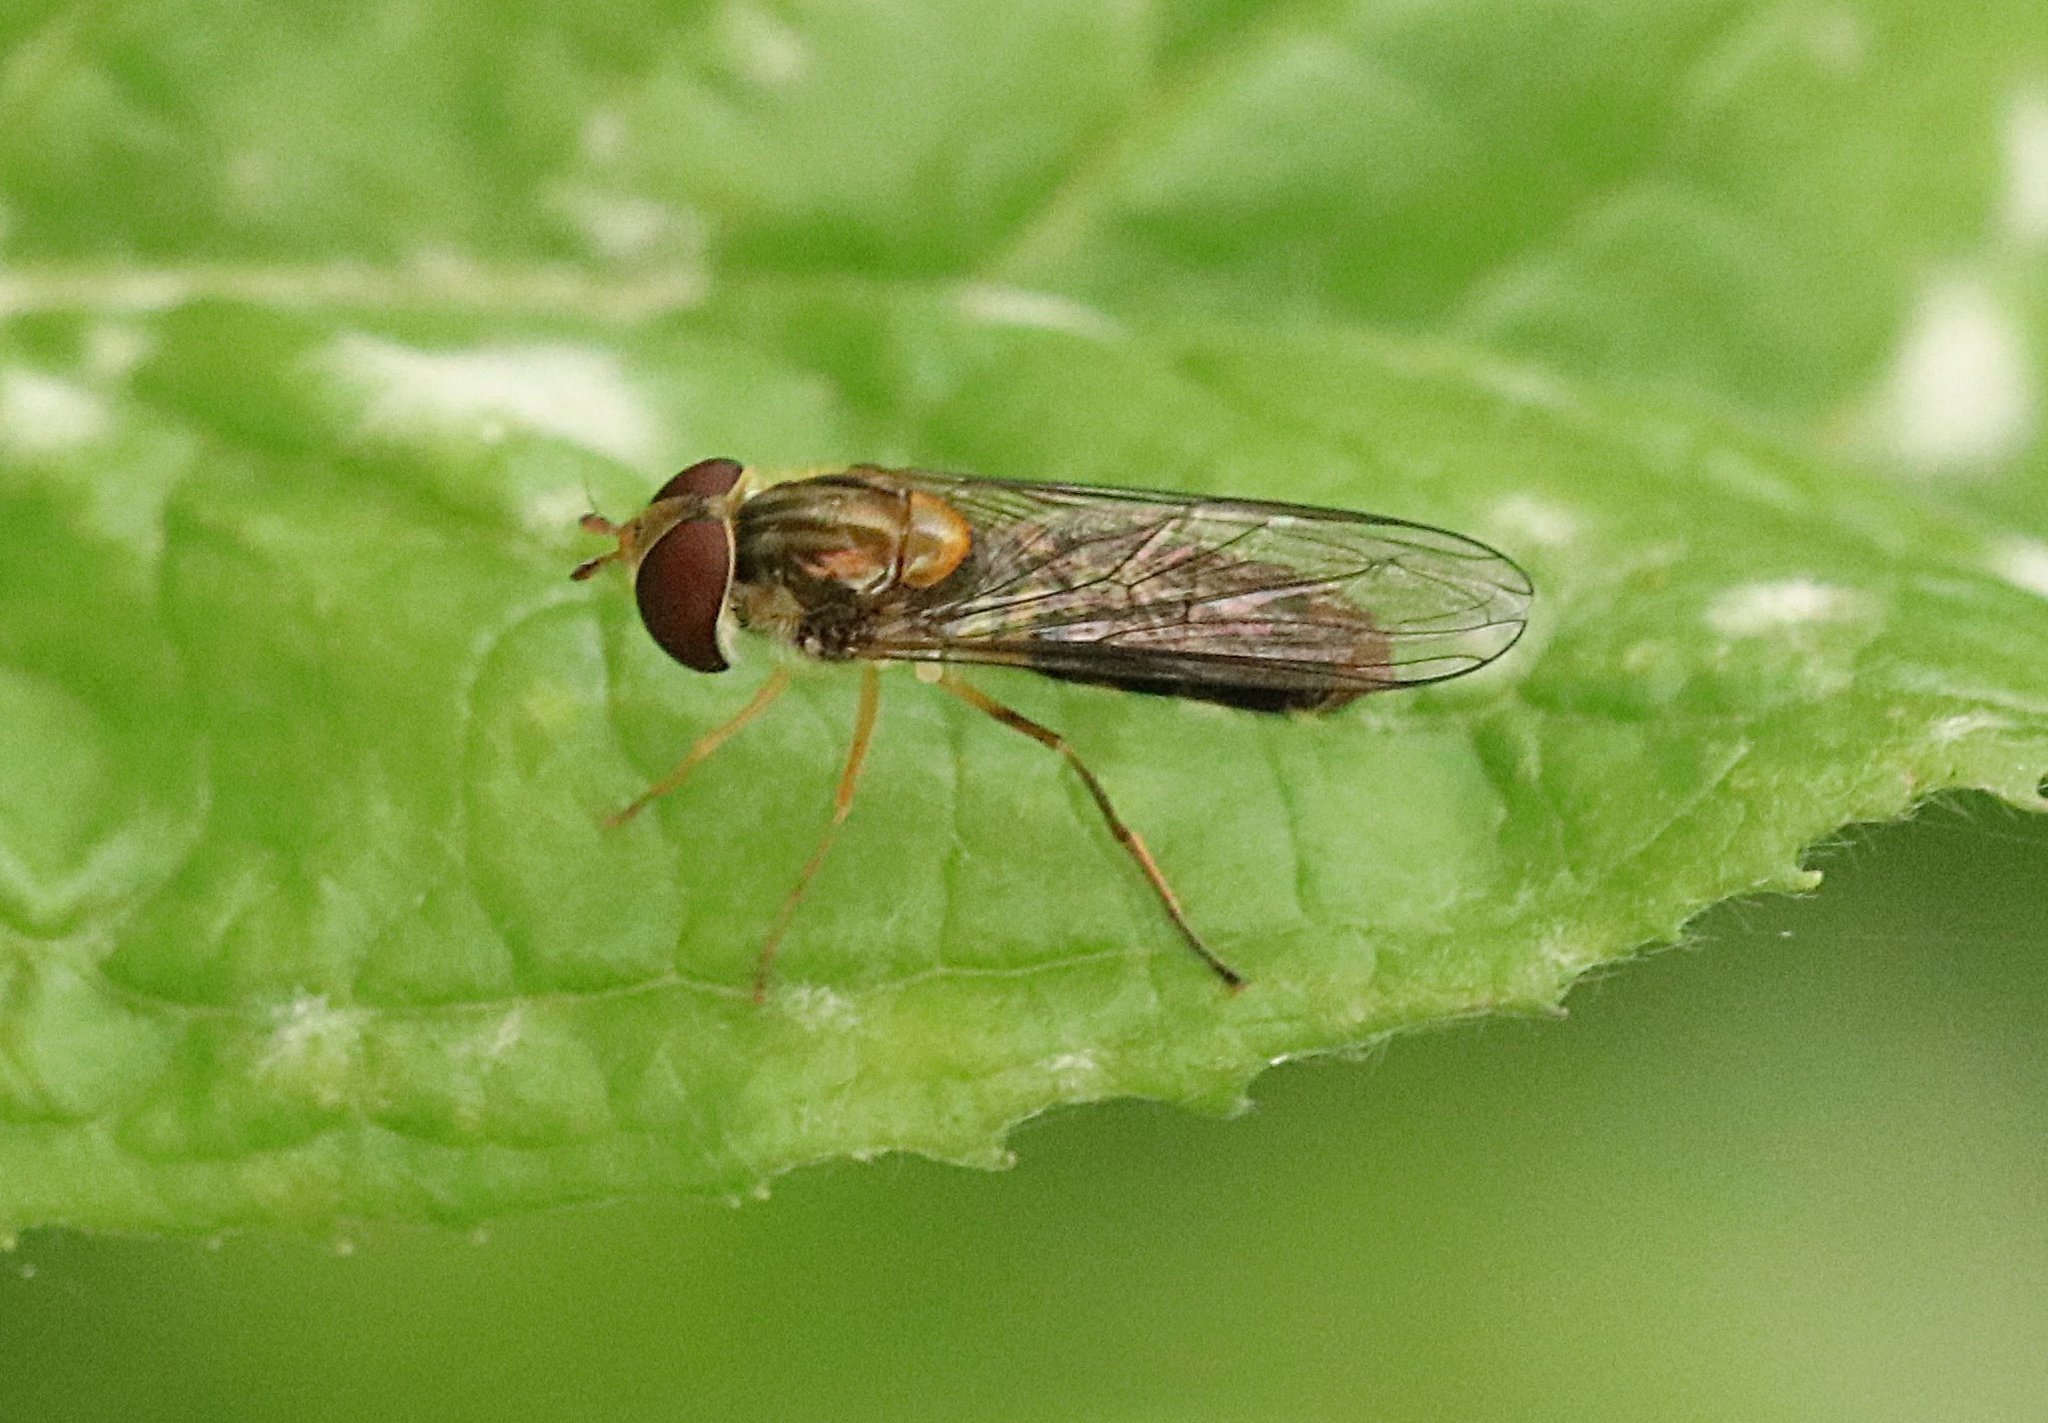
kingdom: Animalia
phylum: Arthropoda
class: Insecta
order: Diptera
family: Syrphidae
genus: Episyrphus
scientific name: Episyrphus balteatus
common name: Marmalade hoverfly
